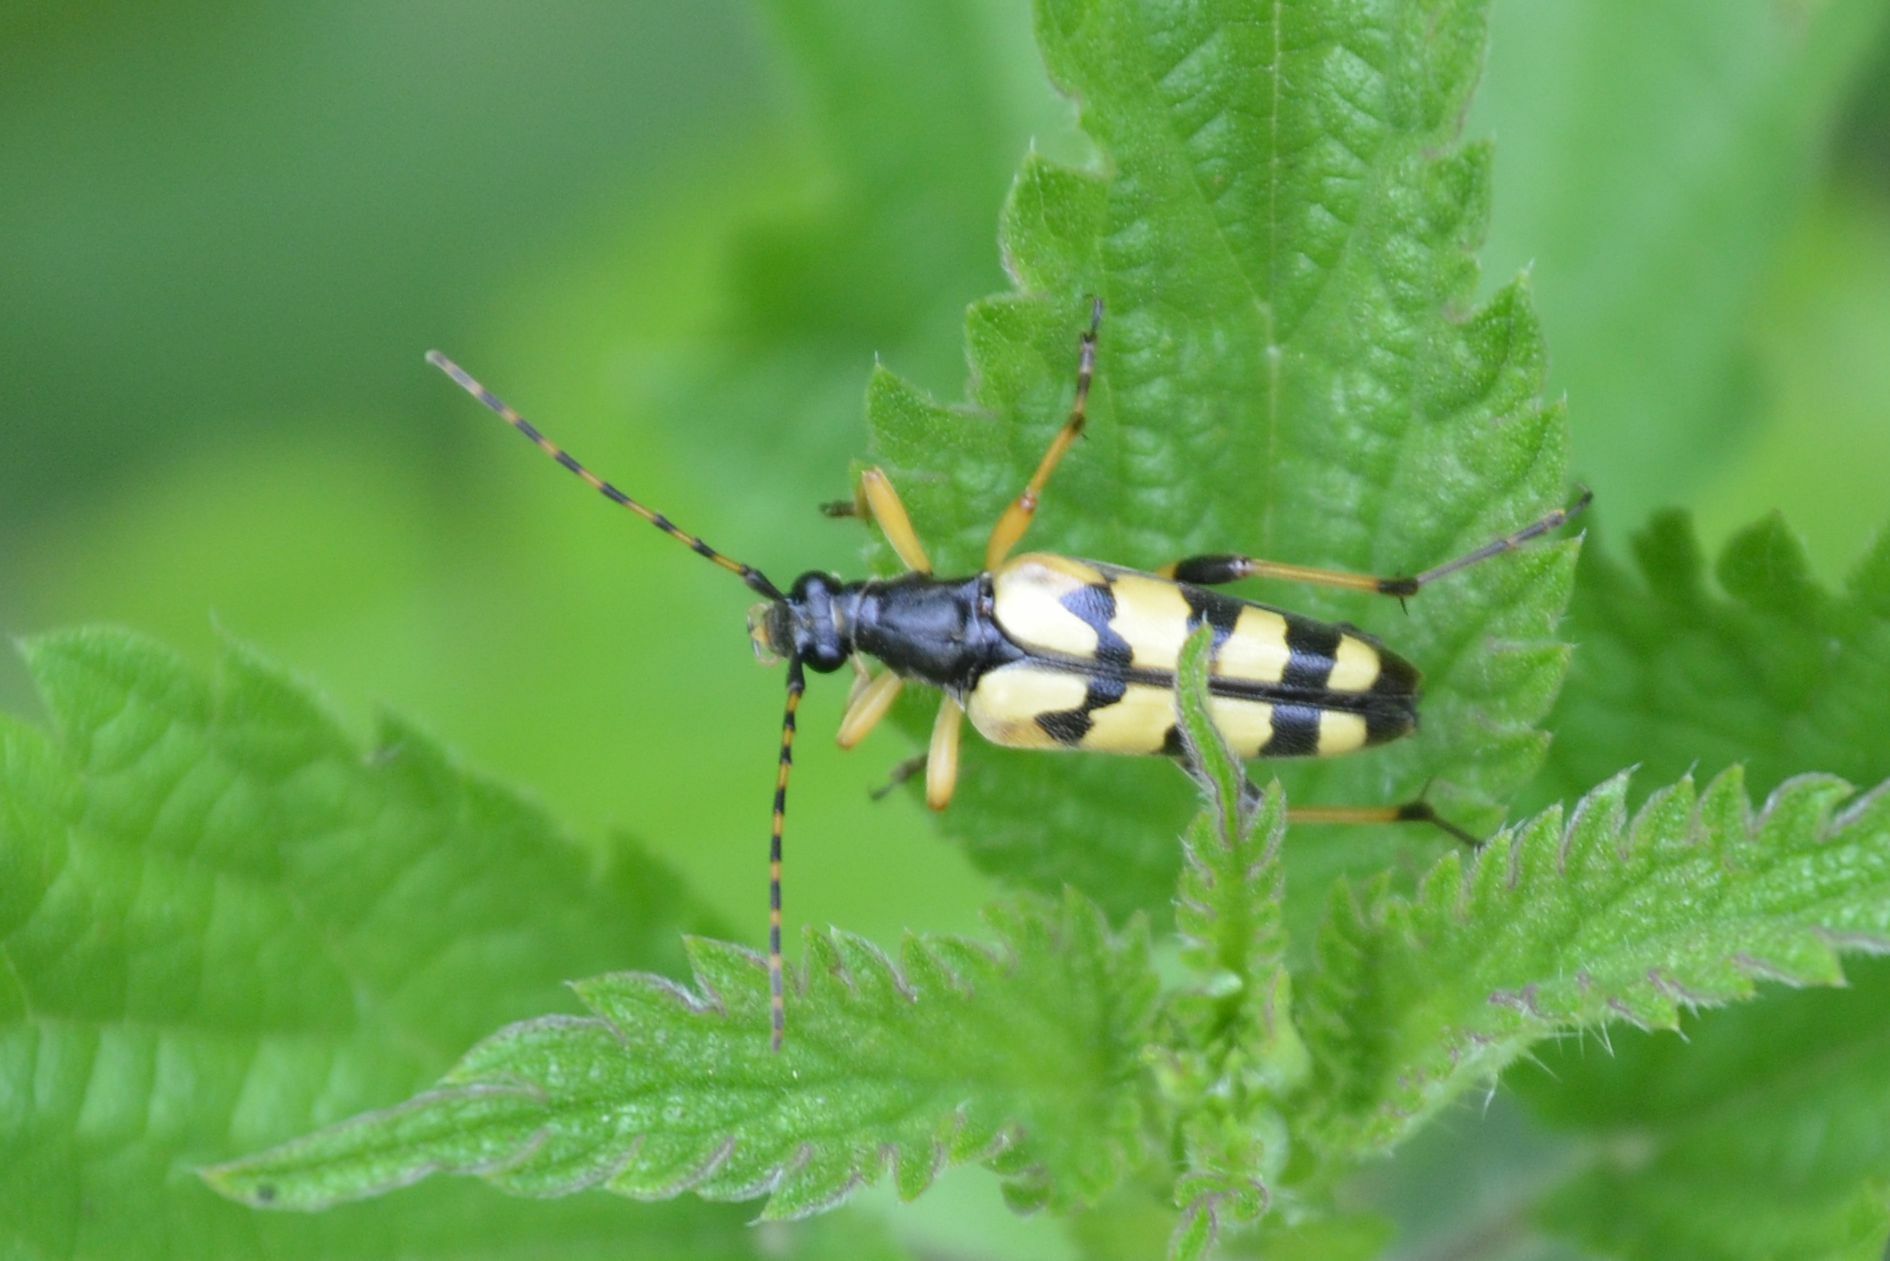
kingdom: Animalia
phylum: Arthropoda
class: Insecta
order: Coleoptera
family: Cerambycidae
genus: Rutpela
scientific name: Rutpela maculata
